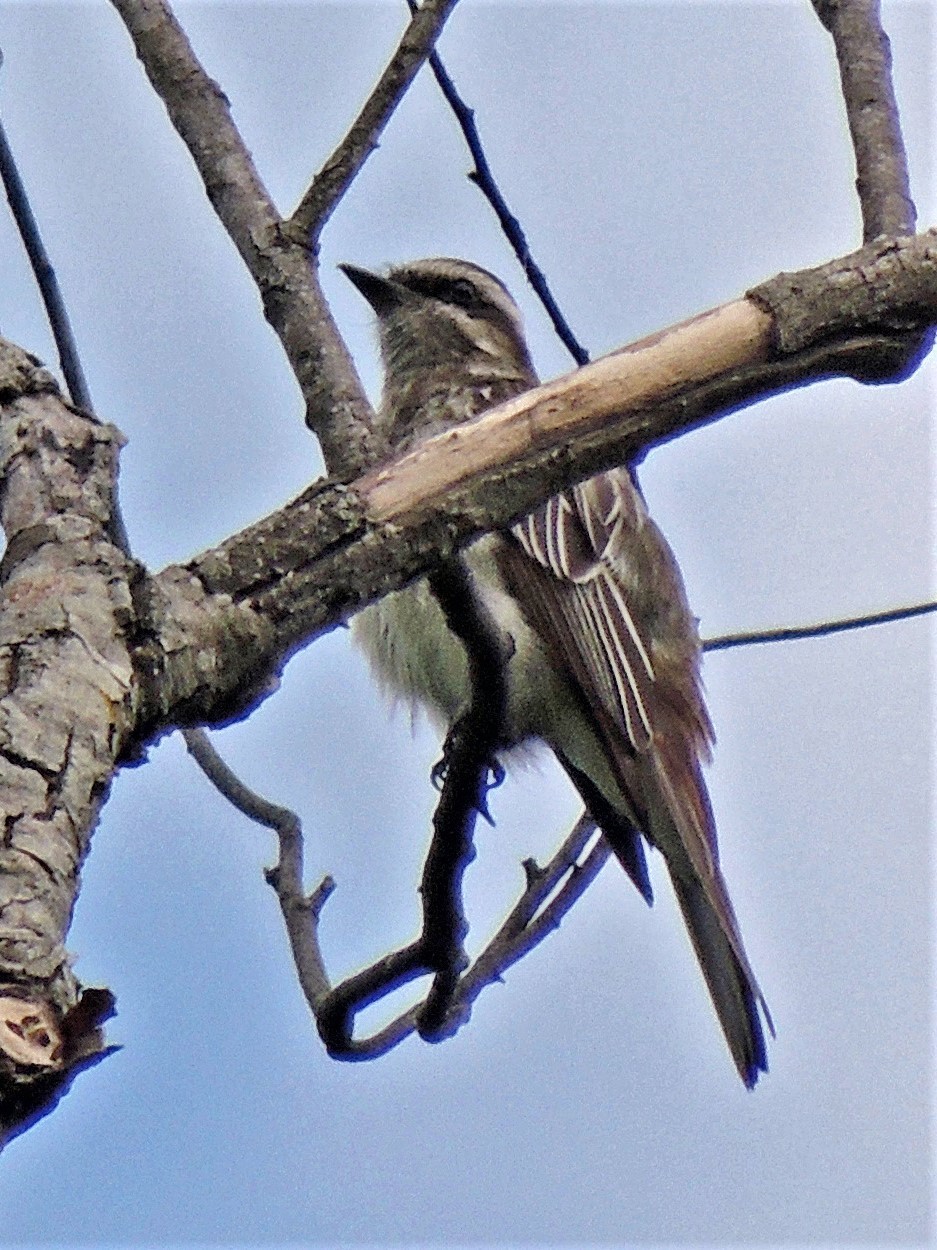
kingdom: Animalia
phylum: Chordata
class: Aves
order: Passeriformes
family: Tyrannidae
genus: Legatus
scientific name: Legatus leucophaius
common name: Piratic flycatcher
